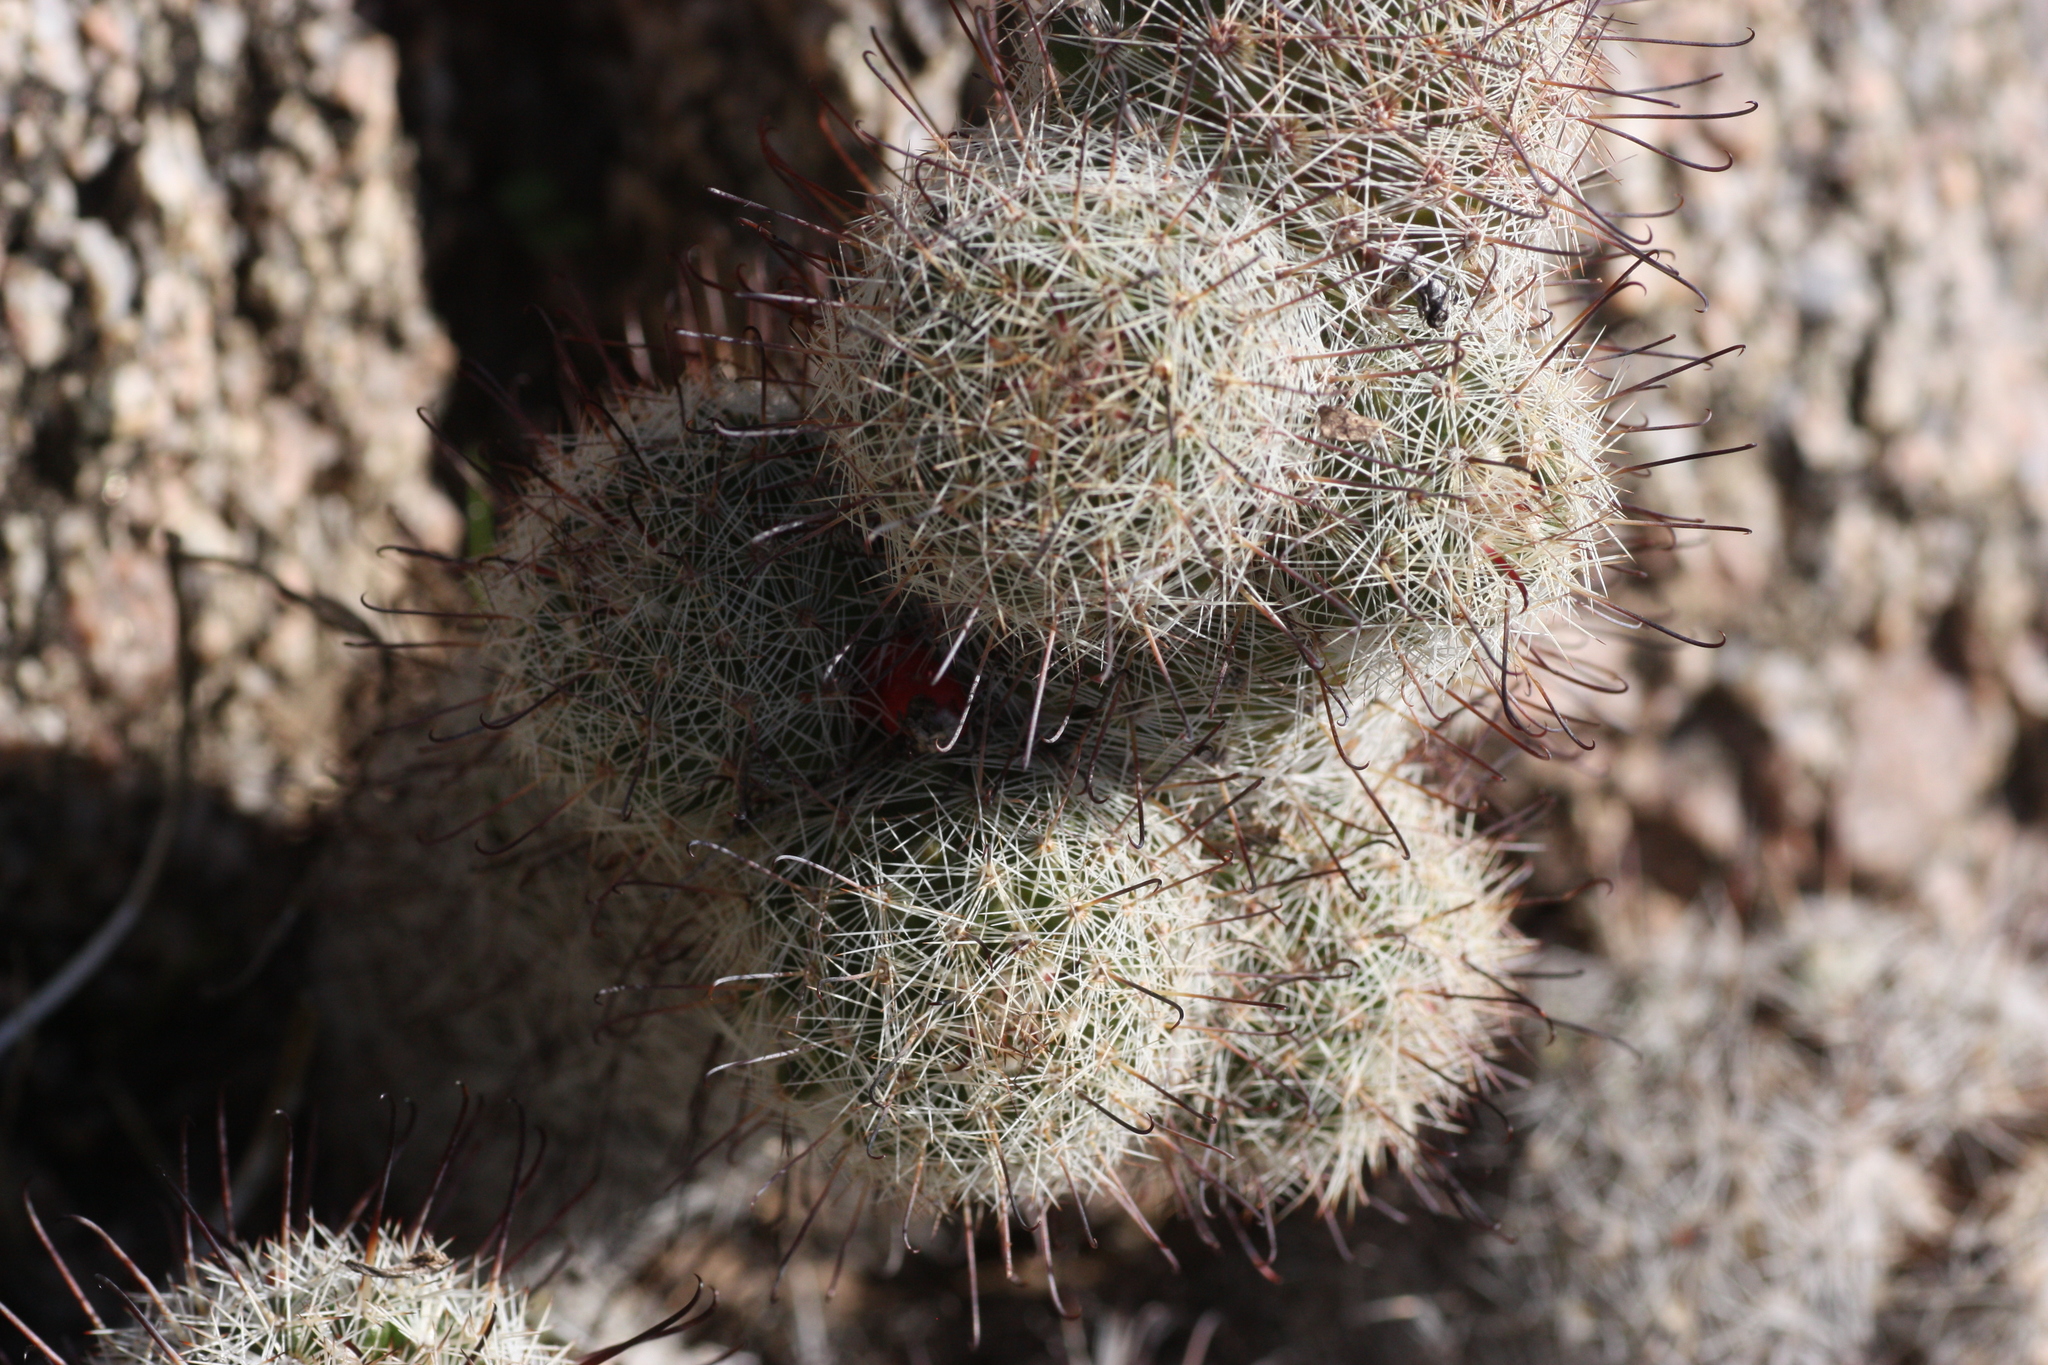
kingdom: Plantae
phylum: Tracheophyta
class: Magnoliopsida
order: Caryophyllales
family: Cactaceae
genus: Cochemiea
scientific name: Cochemiea grahamii
